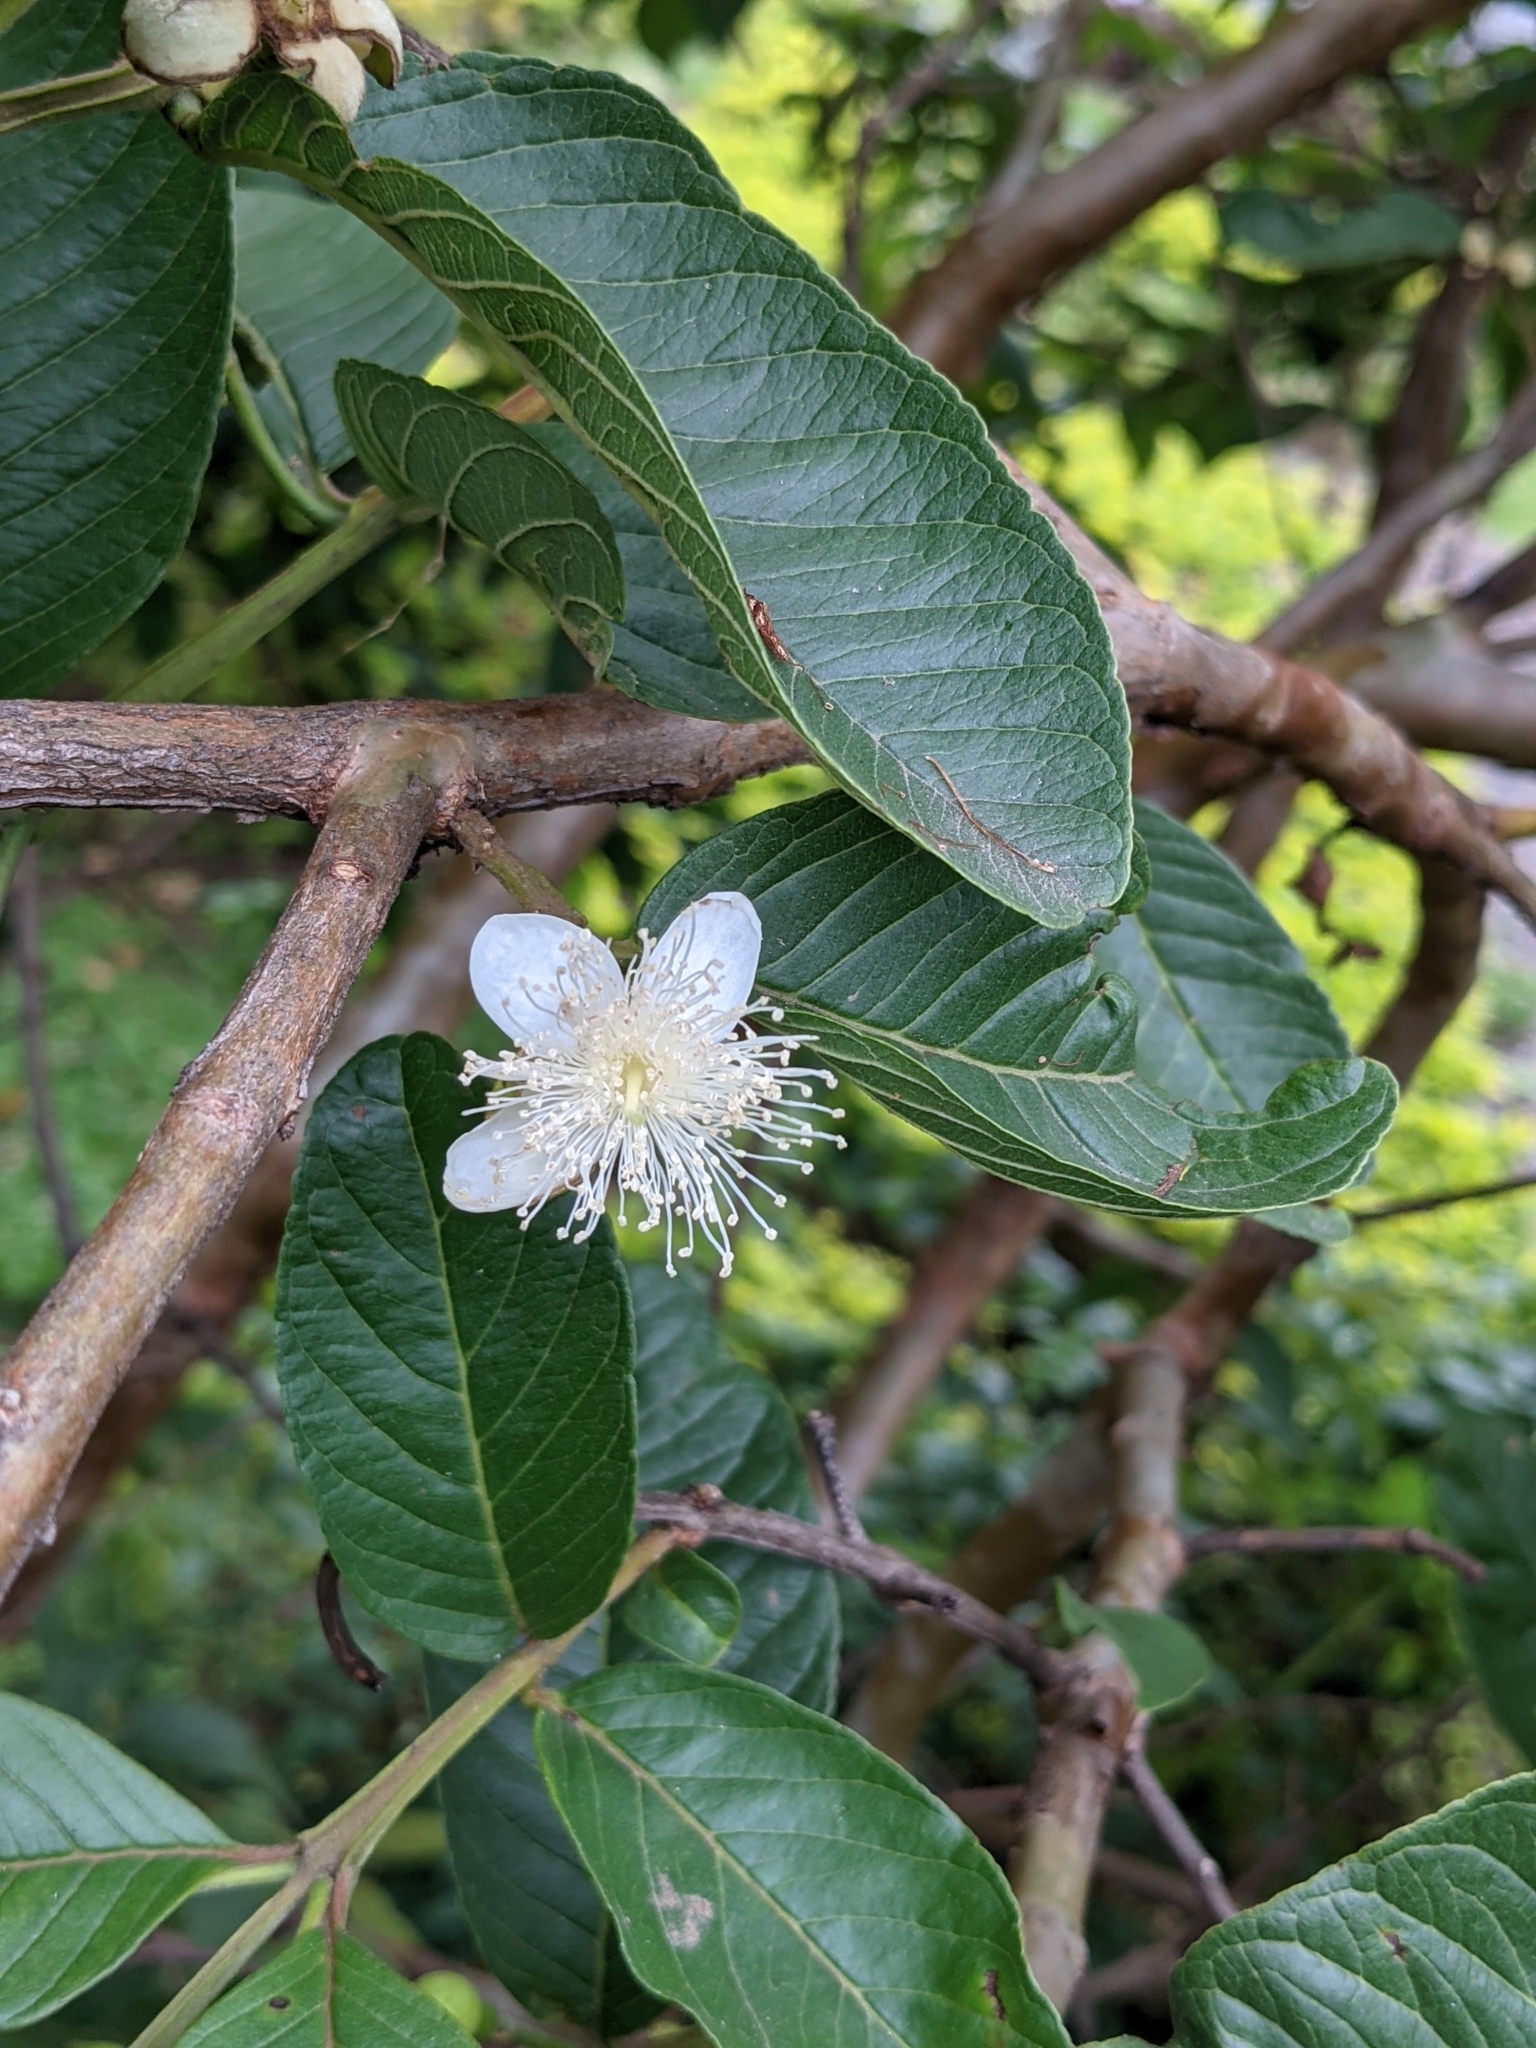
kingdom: Plantae
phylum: Tracheophyta
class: Magnoliopsida
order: Myrtales
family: Myrtaceae
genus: Psidium
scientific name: Psidium guajava
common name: Guava
